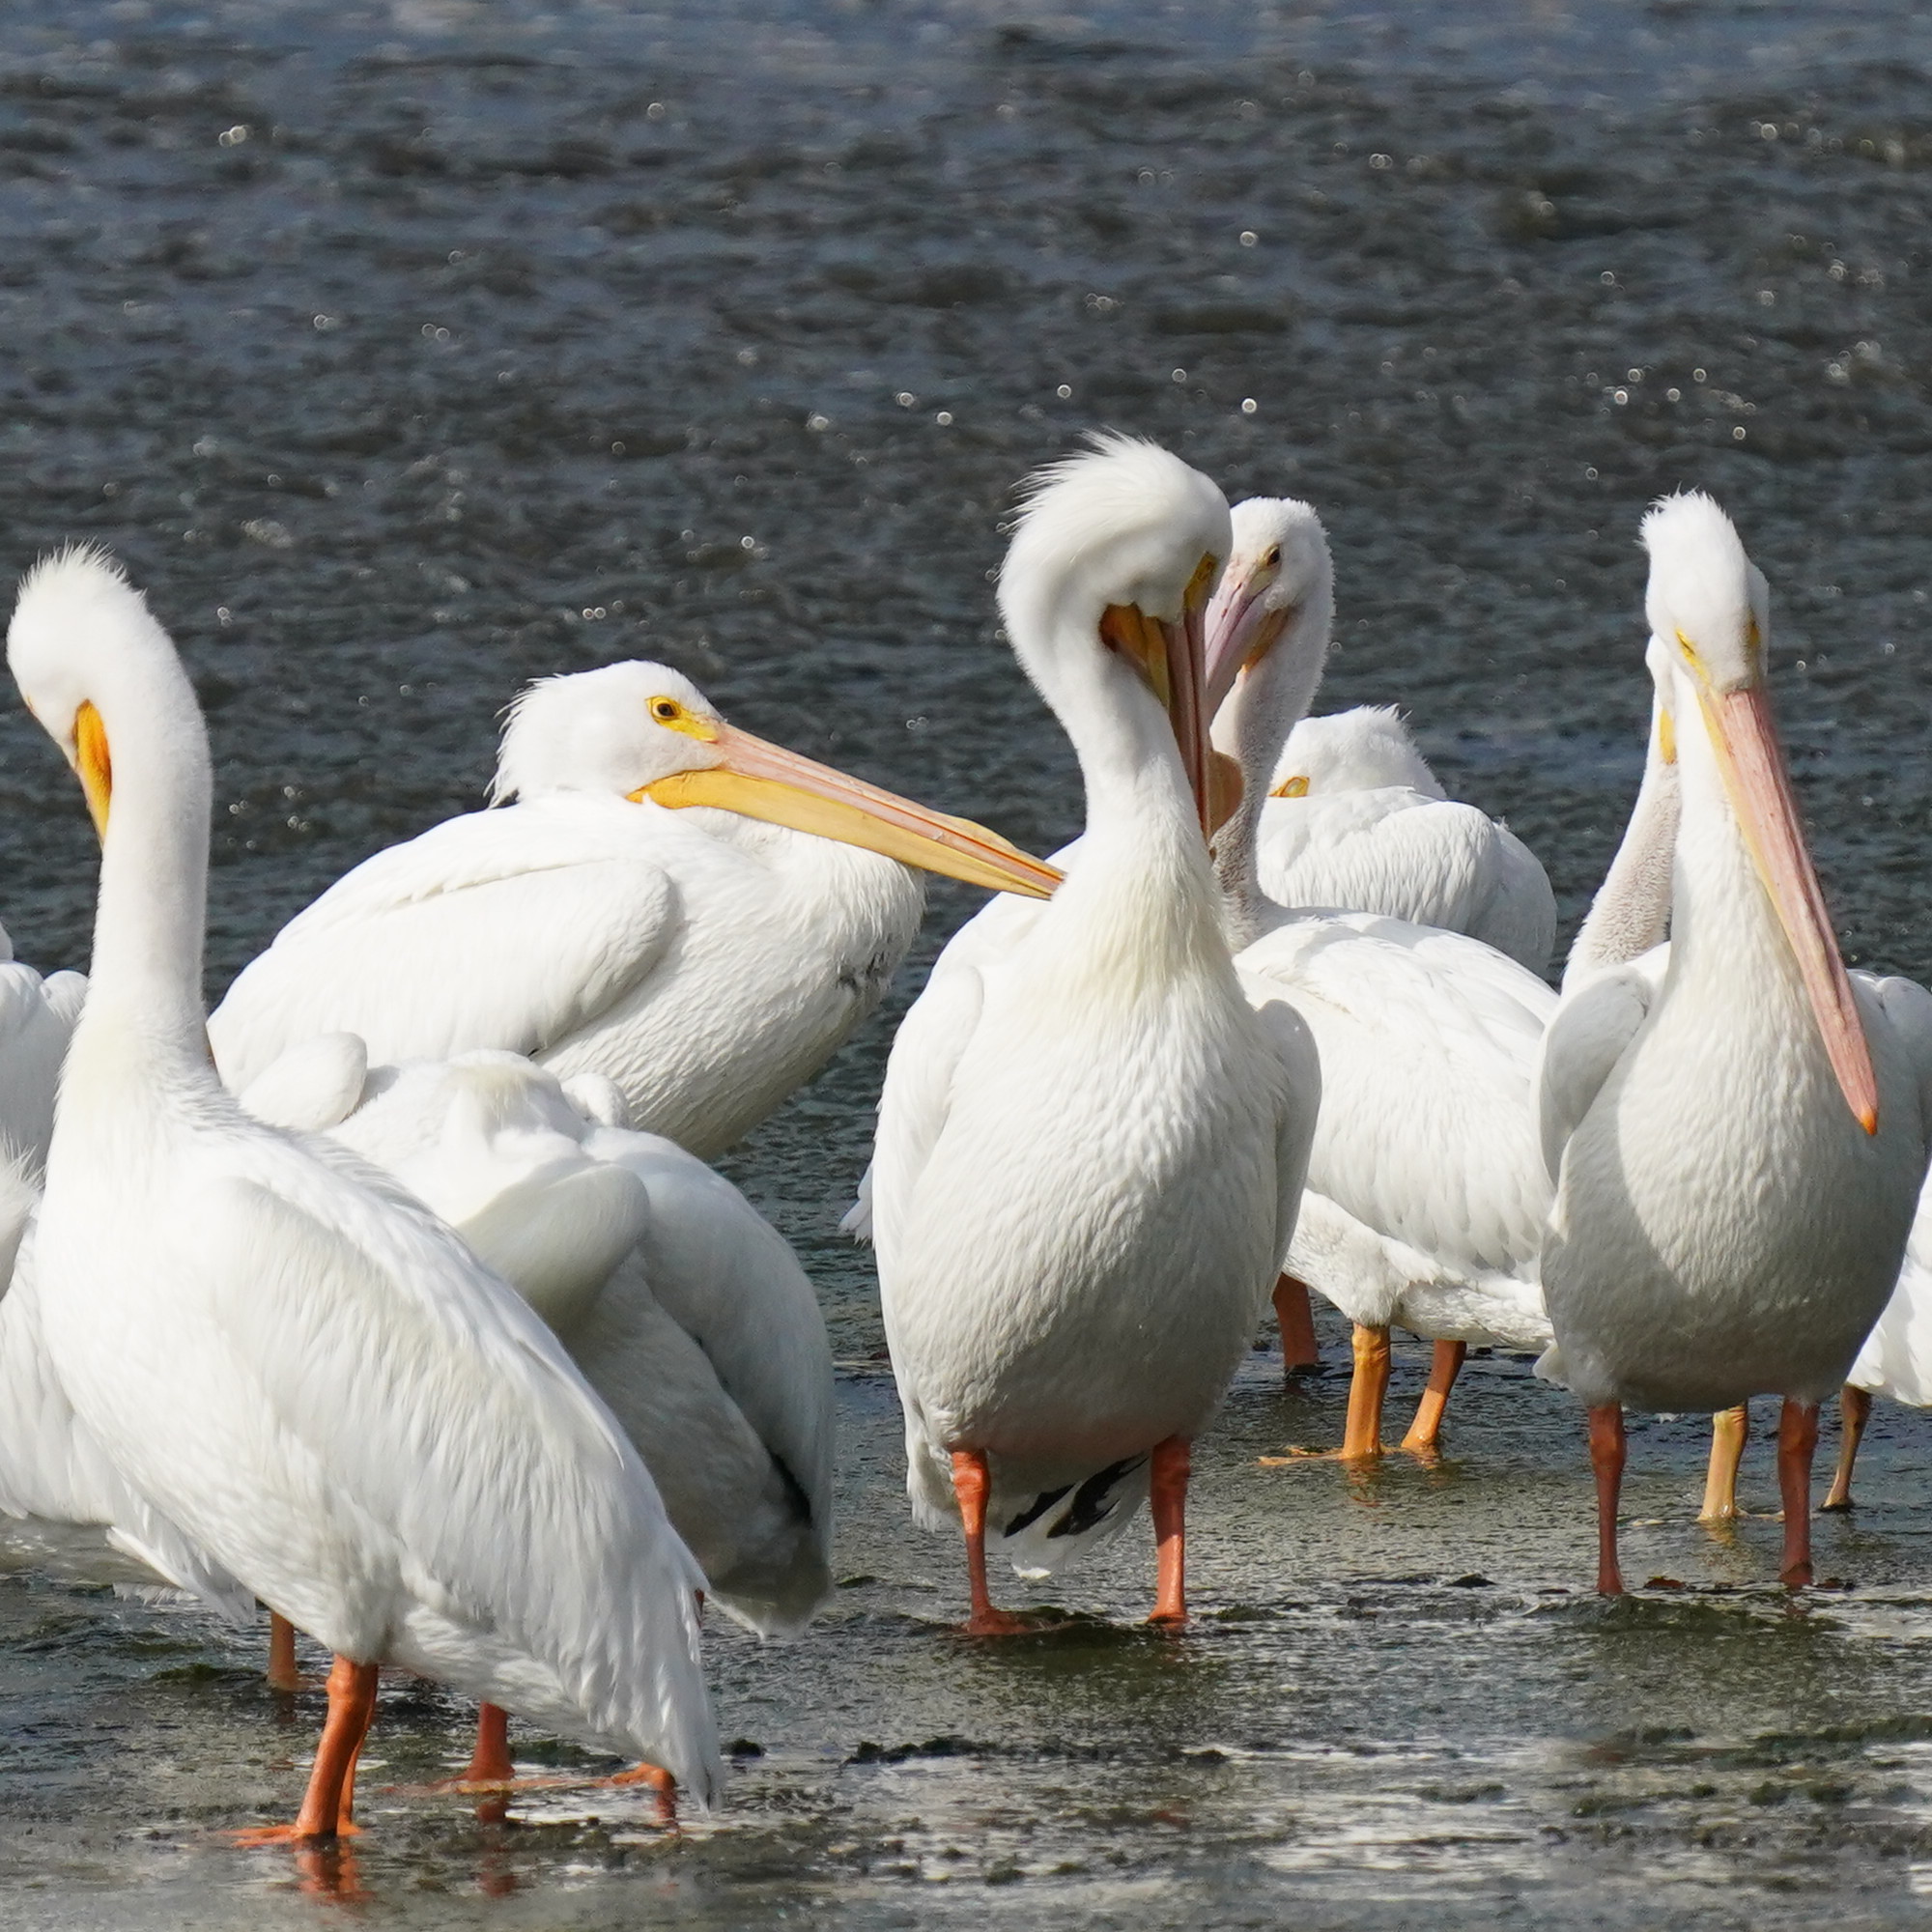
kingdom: Animalia
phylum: Chordata
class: Aves
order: Pelecaniformes
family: Pelecanidae
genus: Pelecanus
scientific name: Pelecanus erythrorhynchos
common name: American white pelican
